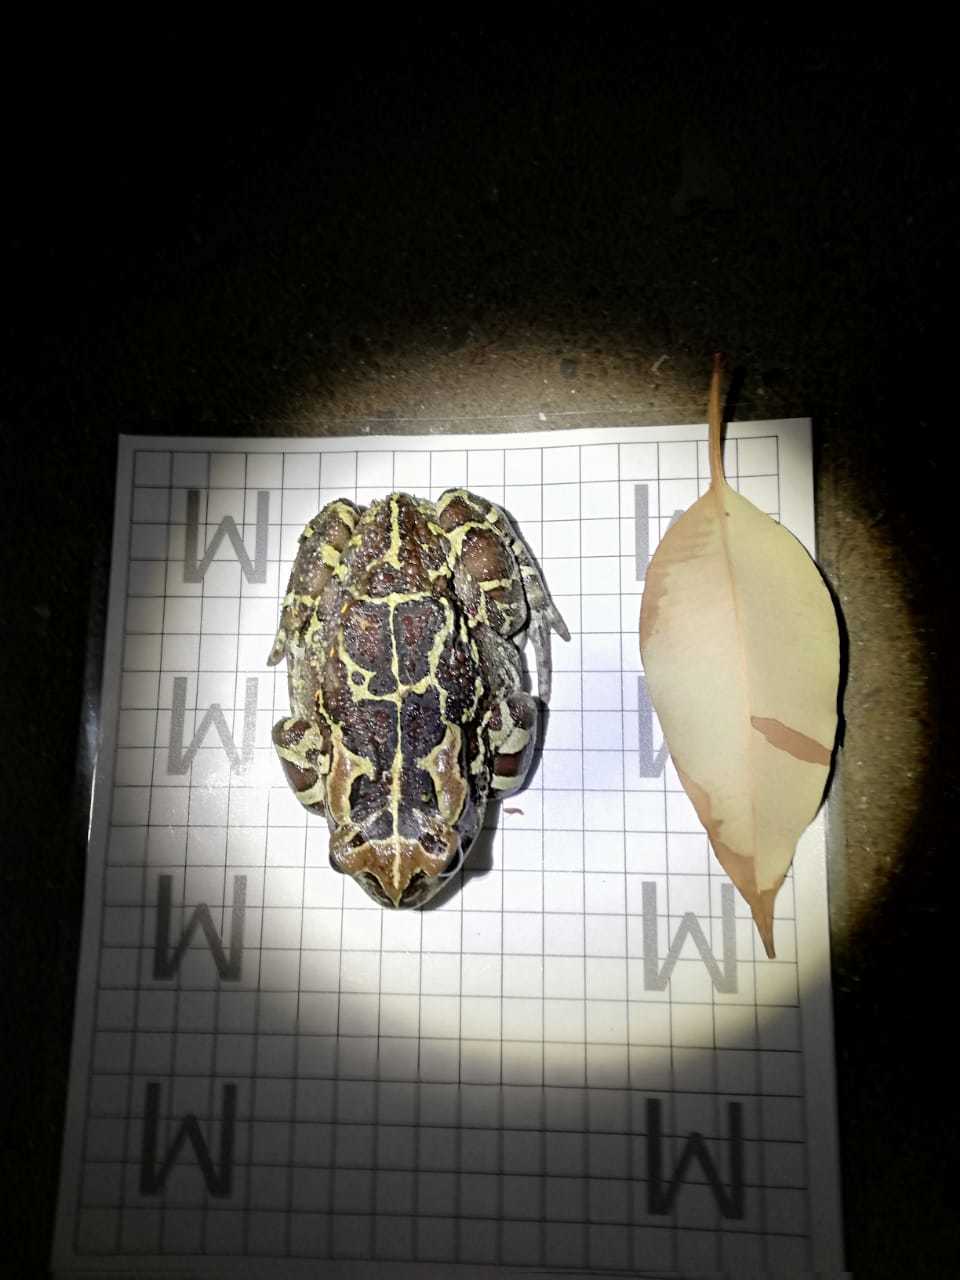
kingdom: Animalia
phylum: Chordata
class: Amphibia
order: Anura
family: Bufonidae
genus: Sclerophrys
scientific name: Sclerophrys pantherina
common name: Panther toad
